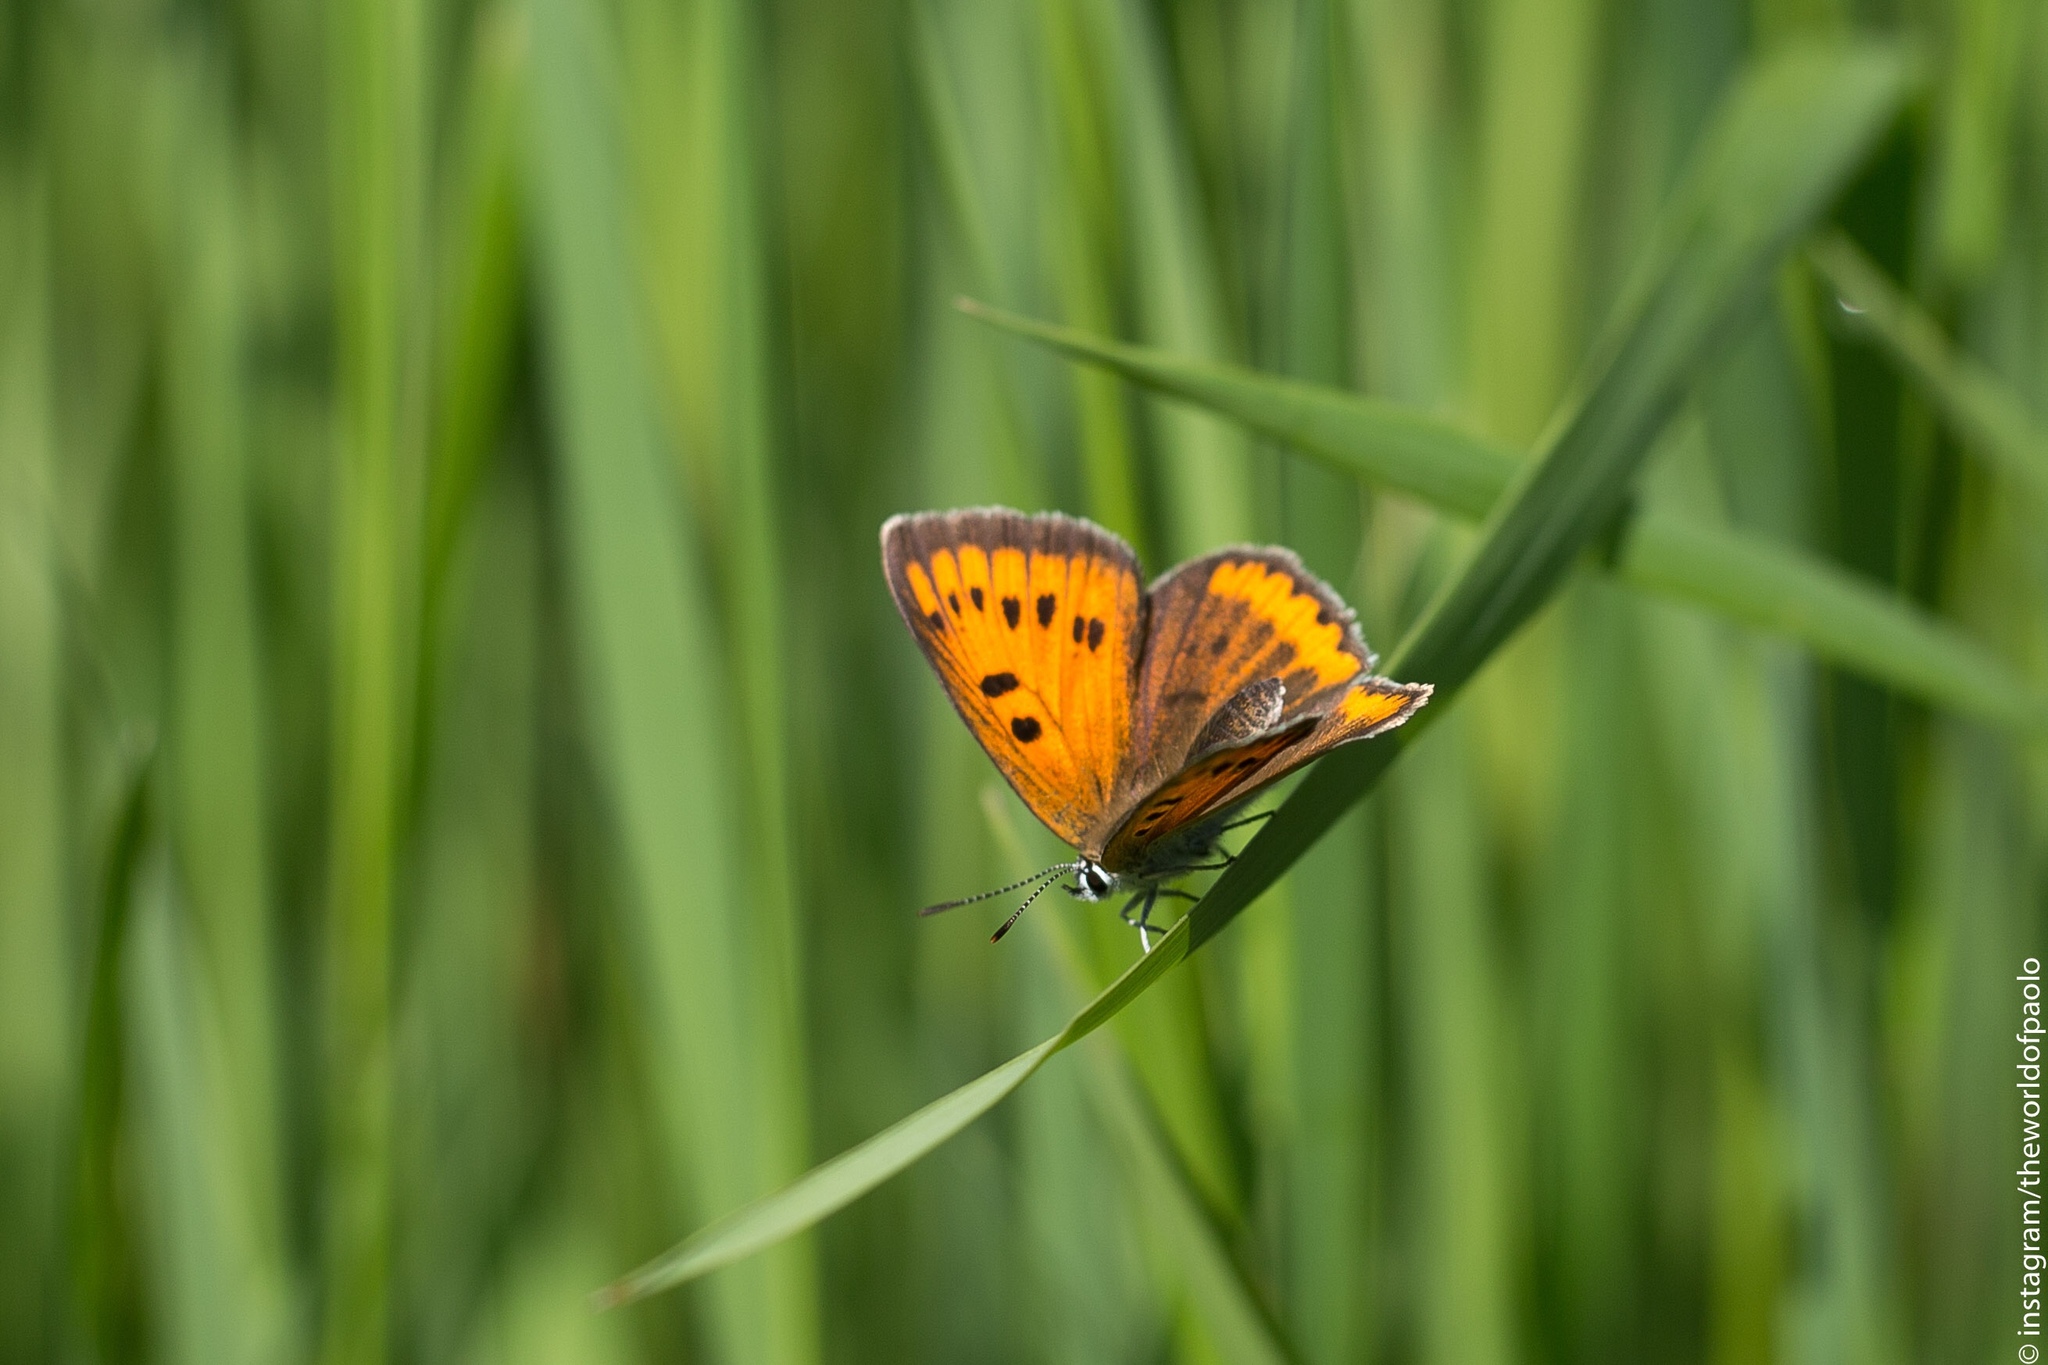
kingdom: Animalia
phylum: Arthropoda
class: Insecta
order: Lepidoptera
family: Lycaenidae
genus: Lycaena
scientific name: Lycaena dispar
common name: Large copper
